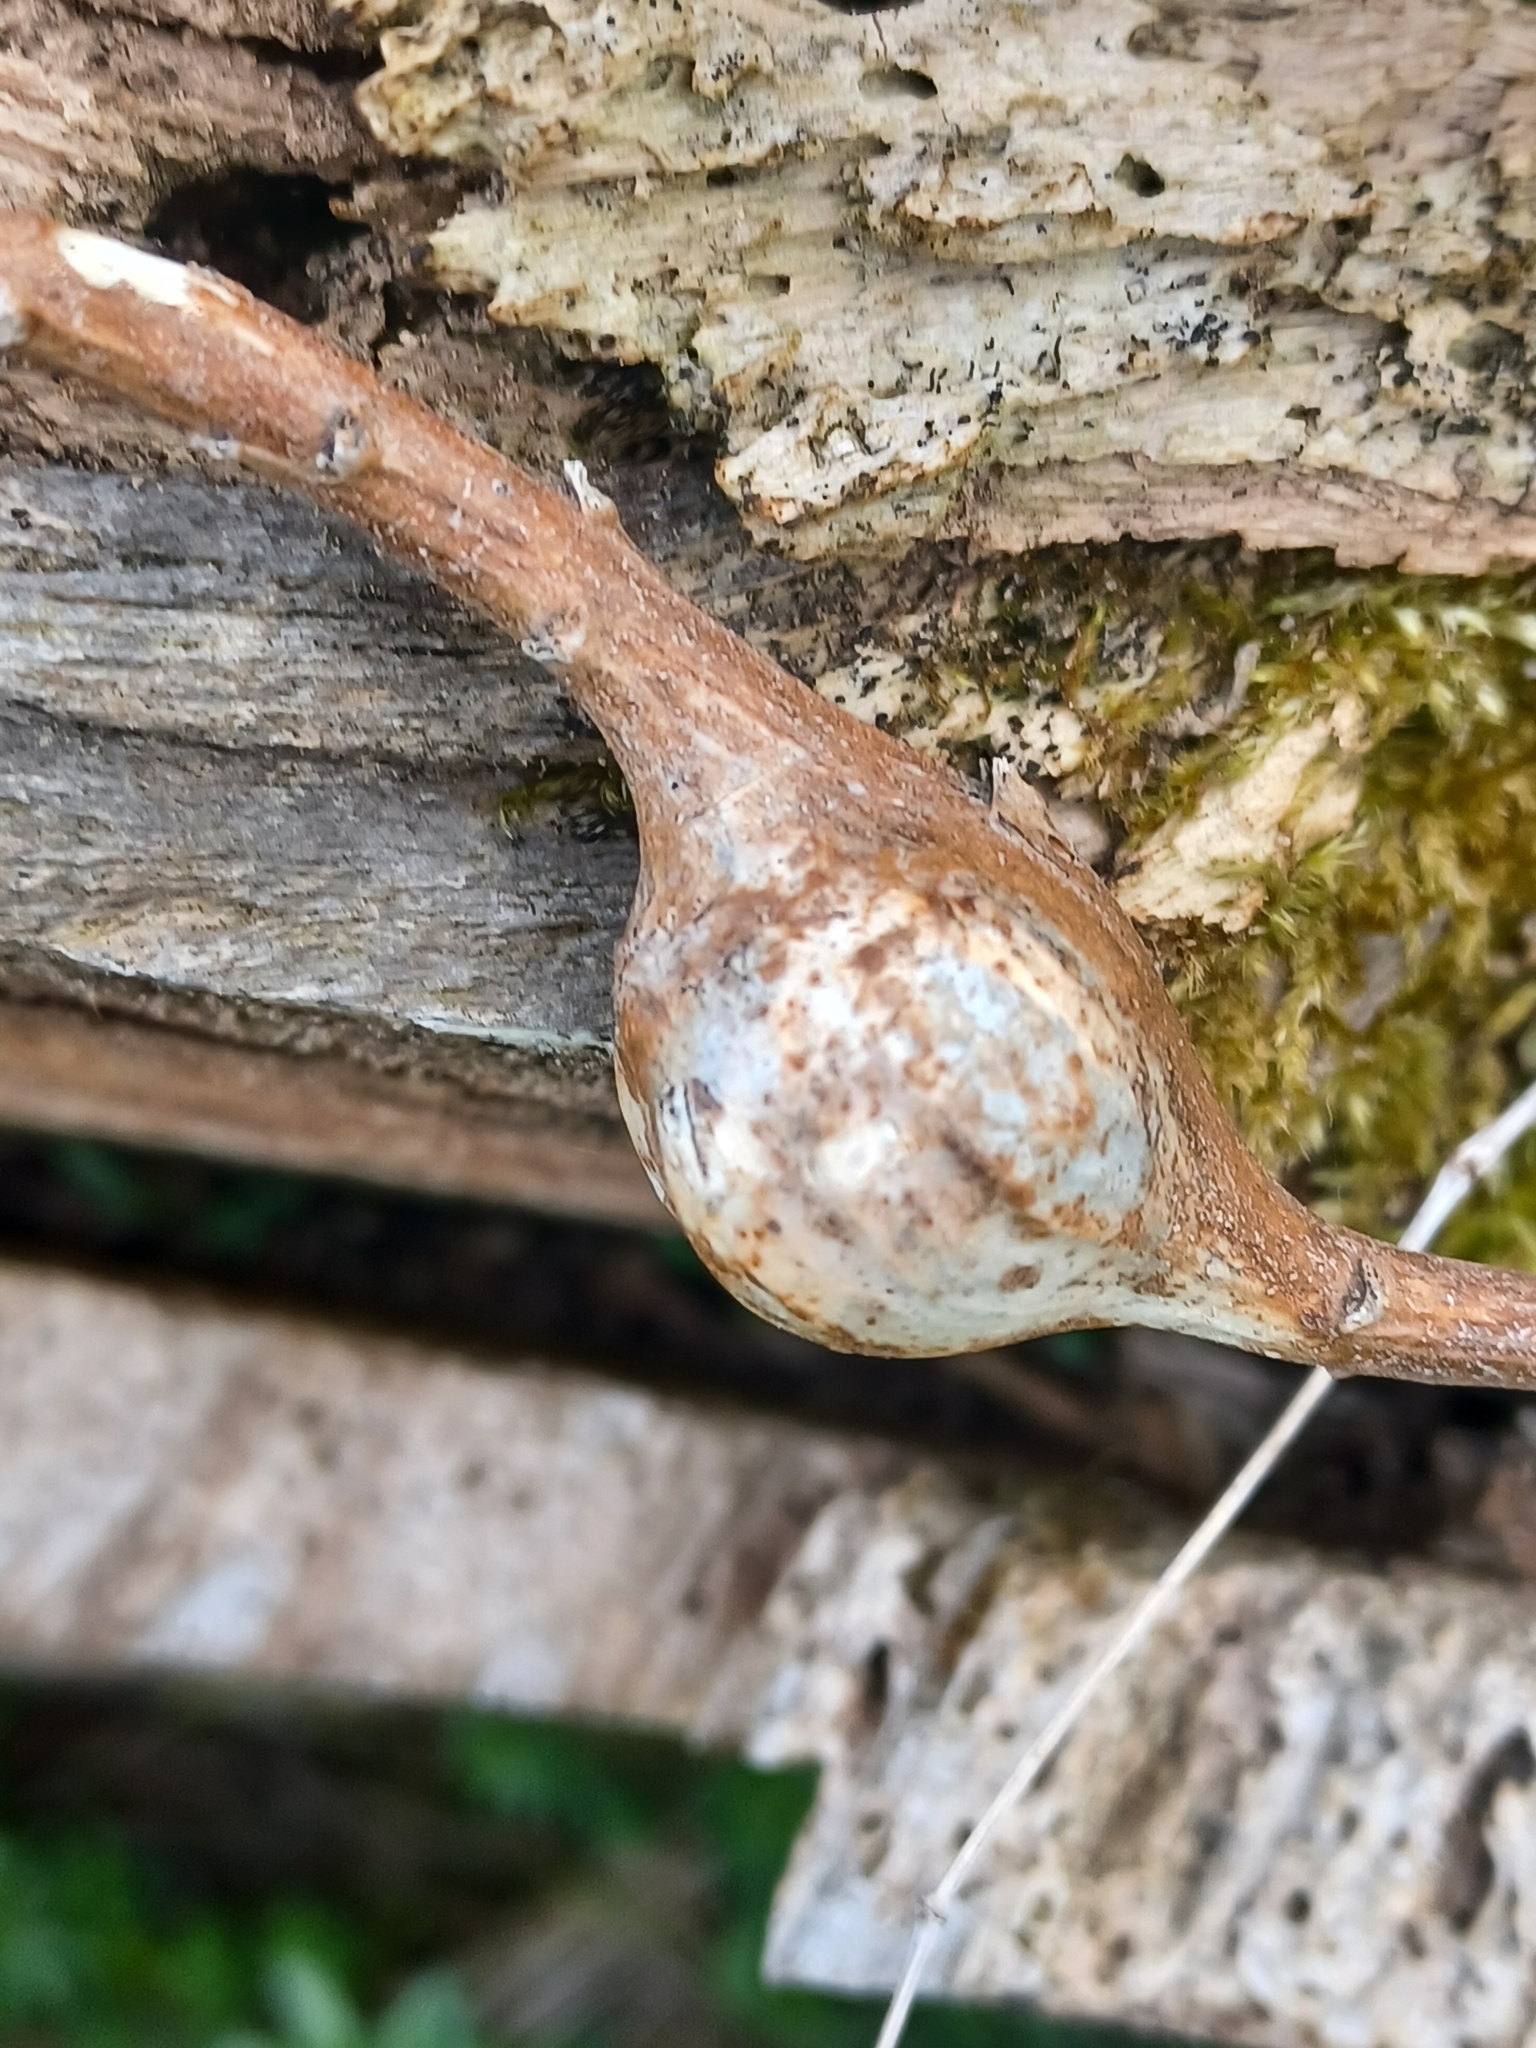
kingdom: Animalia
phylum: Arthropoda
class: Insecta
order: Diptera
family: Tephritidae
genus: Eurosta
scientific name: Eurosta solidaginis
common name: Goldenrod gall fly
